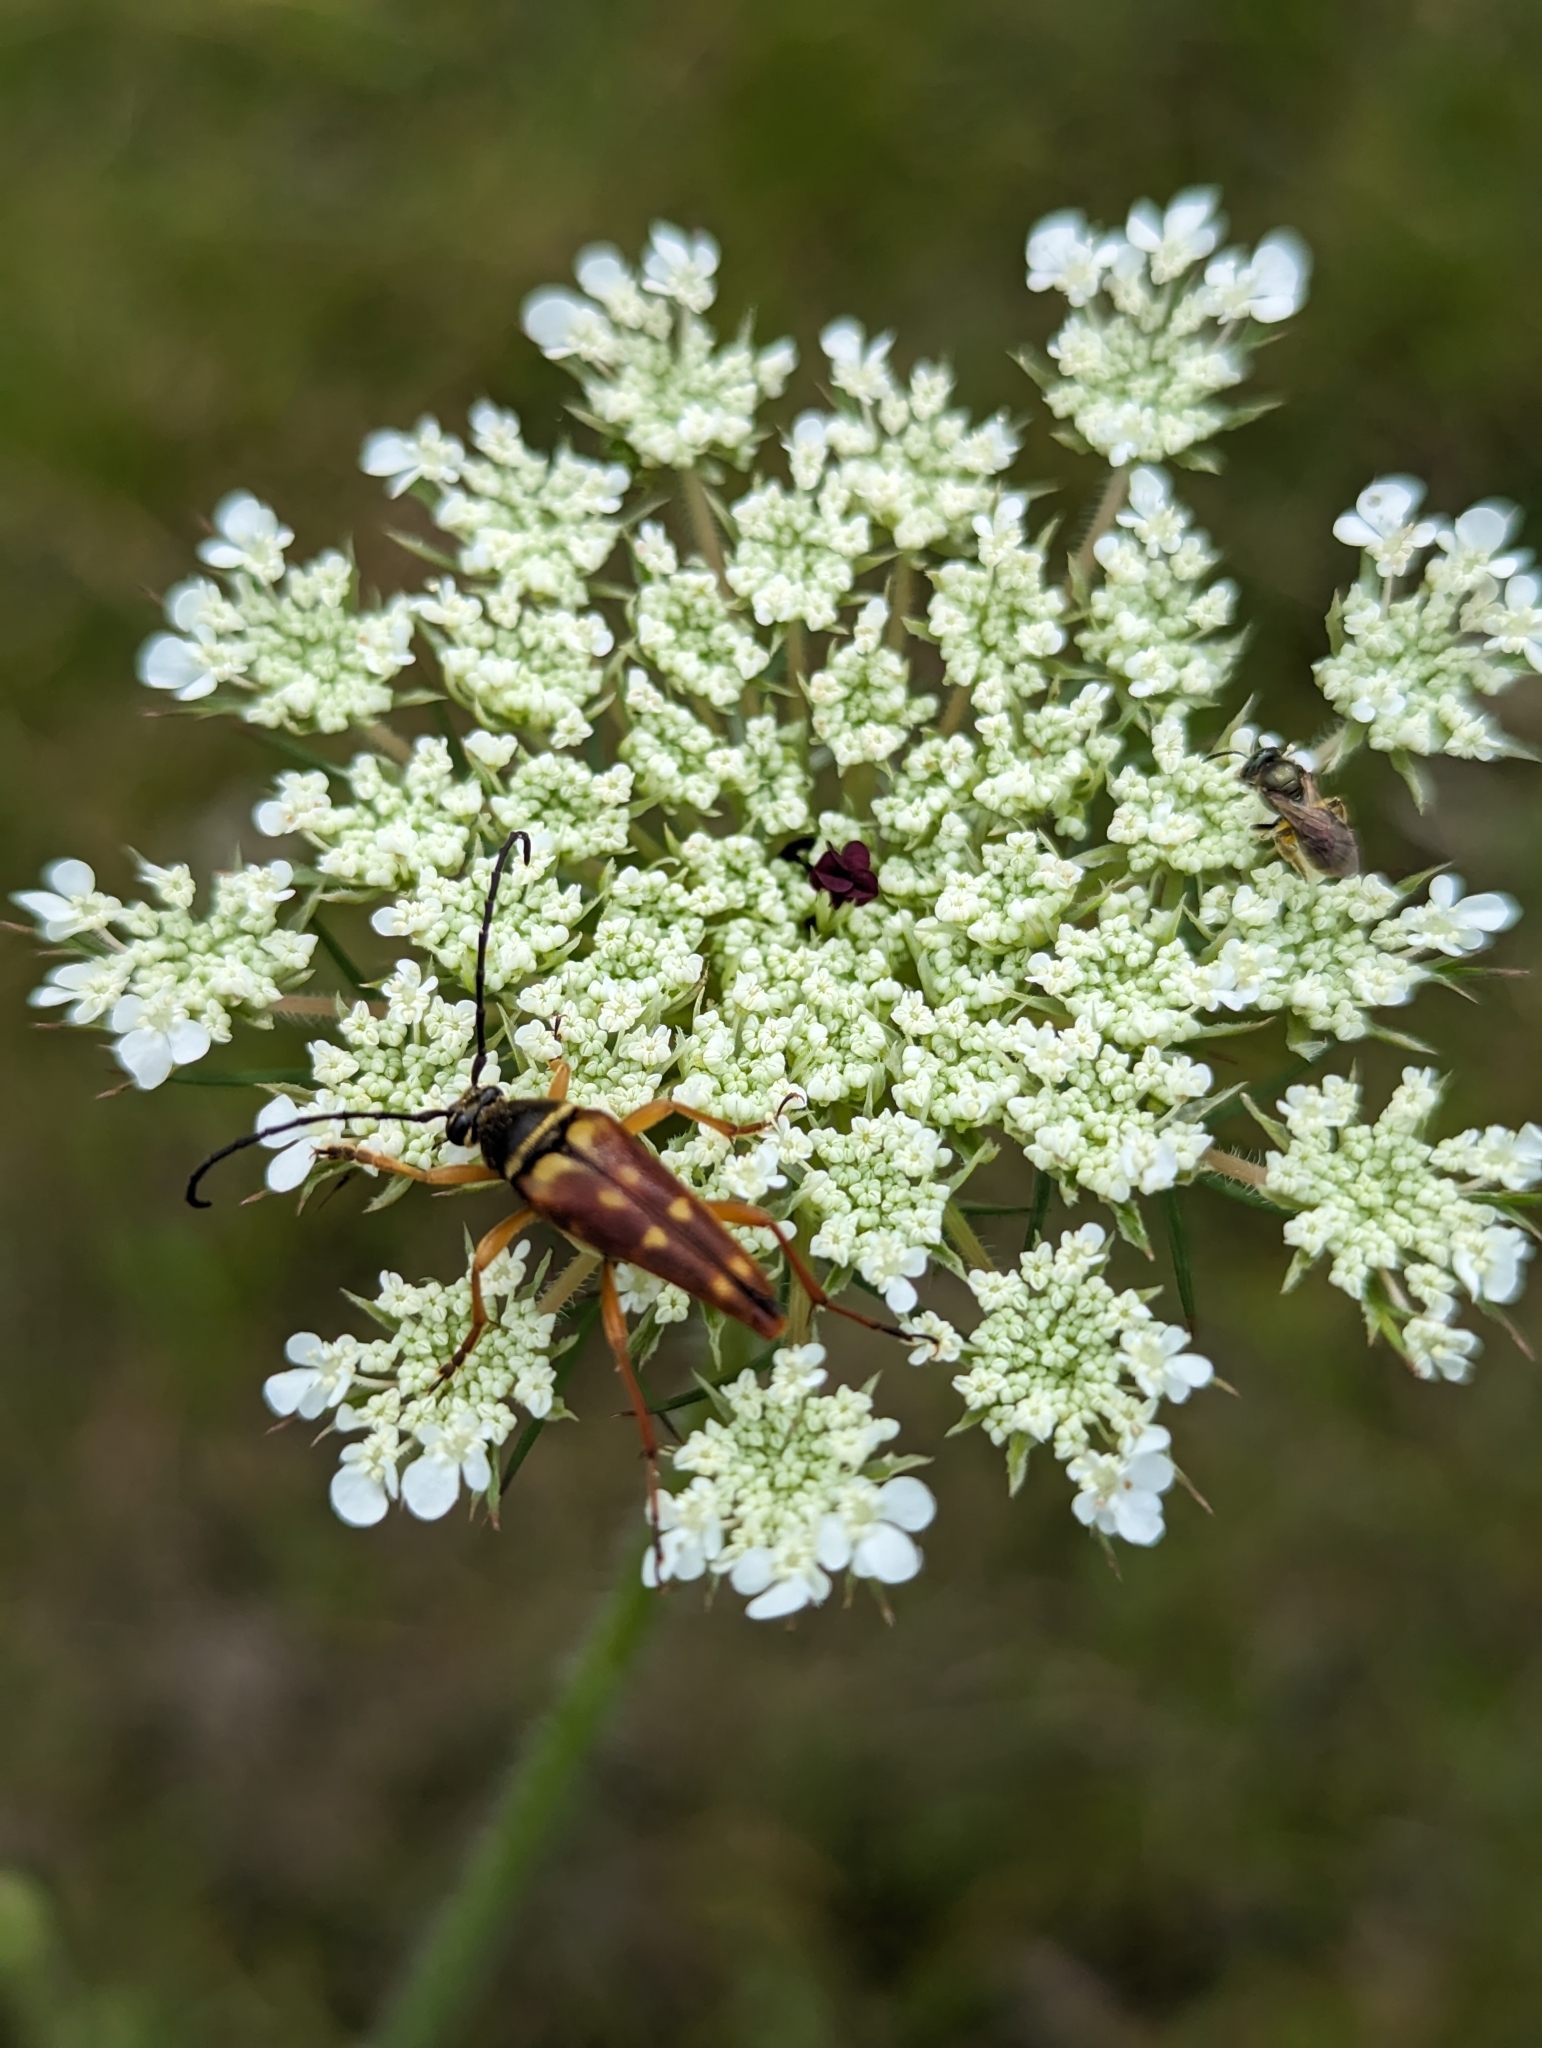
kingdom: Animalia
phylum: Arthropoda
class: Insecta
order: Coleoptera
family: Cerambycidae
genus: Typocerus
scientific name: Typocerus velutinus
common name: Banded longhorn beetle
